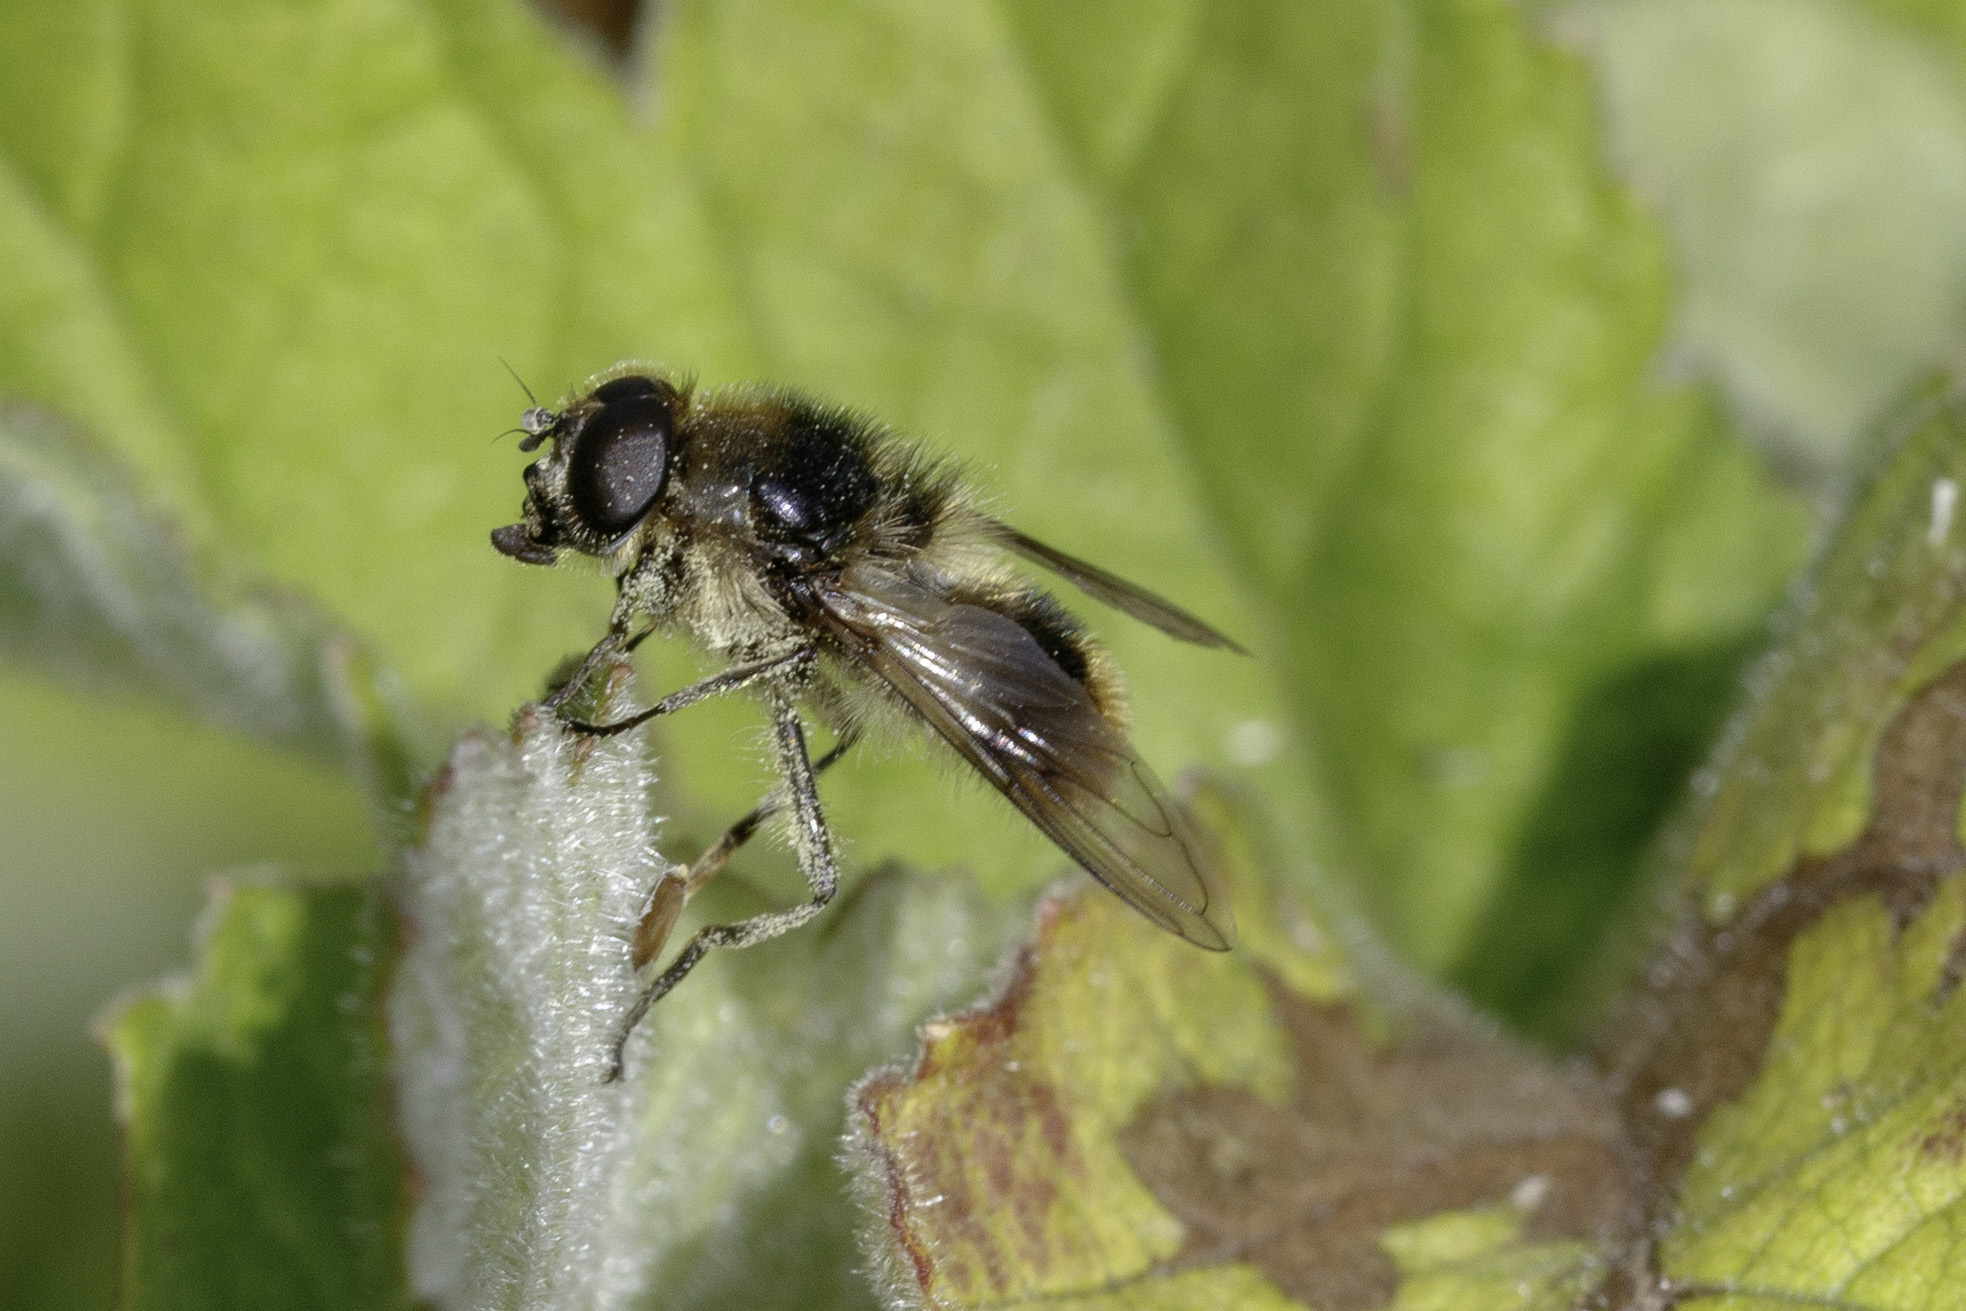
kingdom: Animalia
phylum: Arthropoda
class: Insecta
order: Diptera
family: Syrphidae
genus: Cheilosia
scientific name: Cheilosia illustrata
